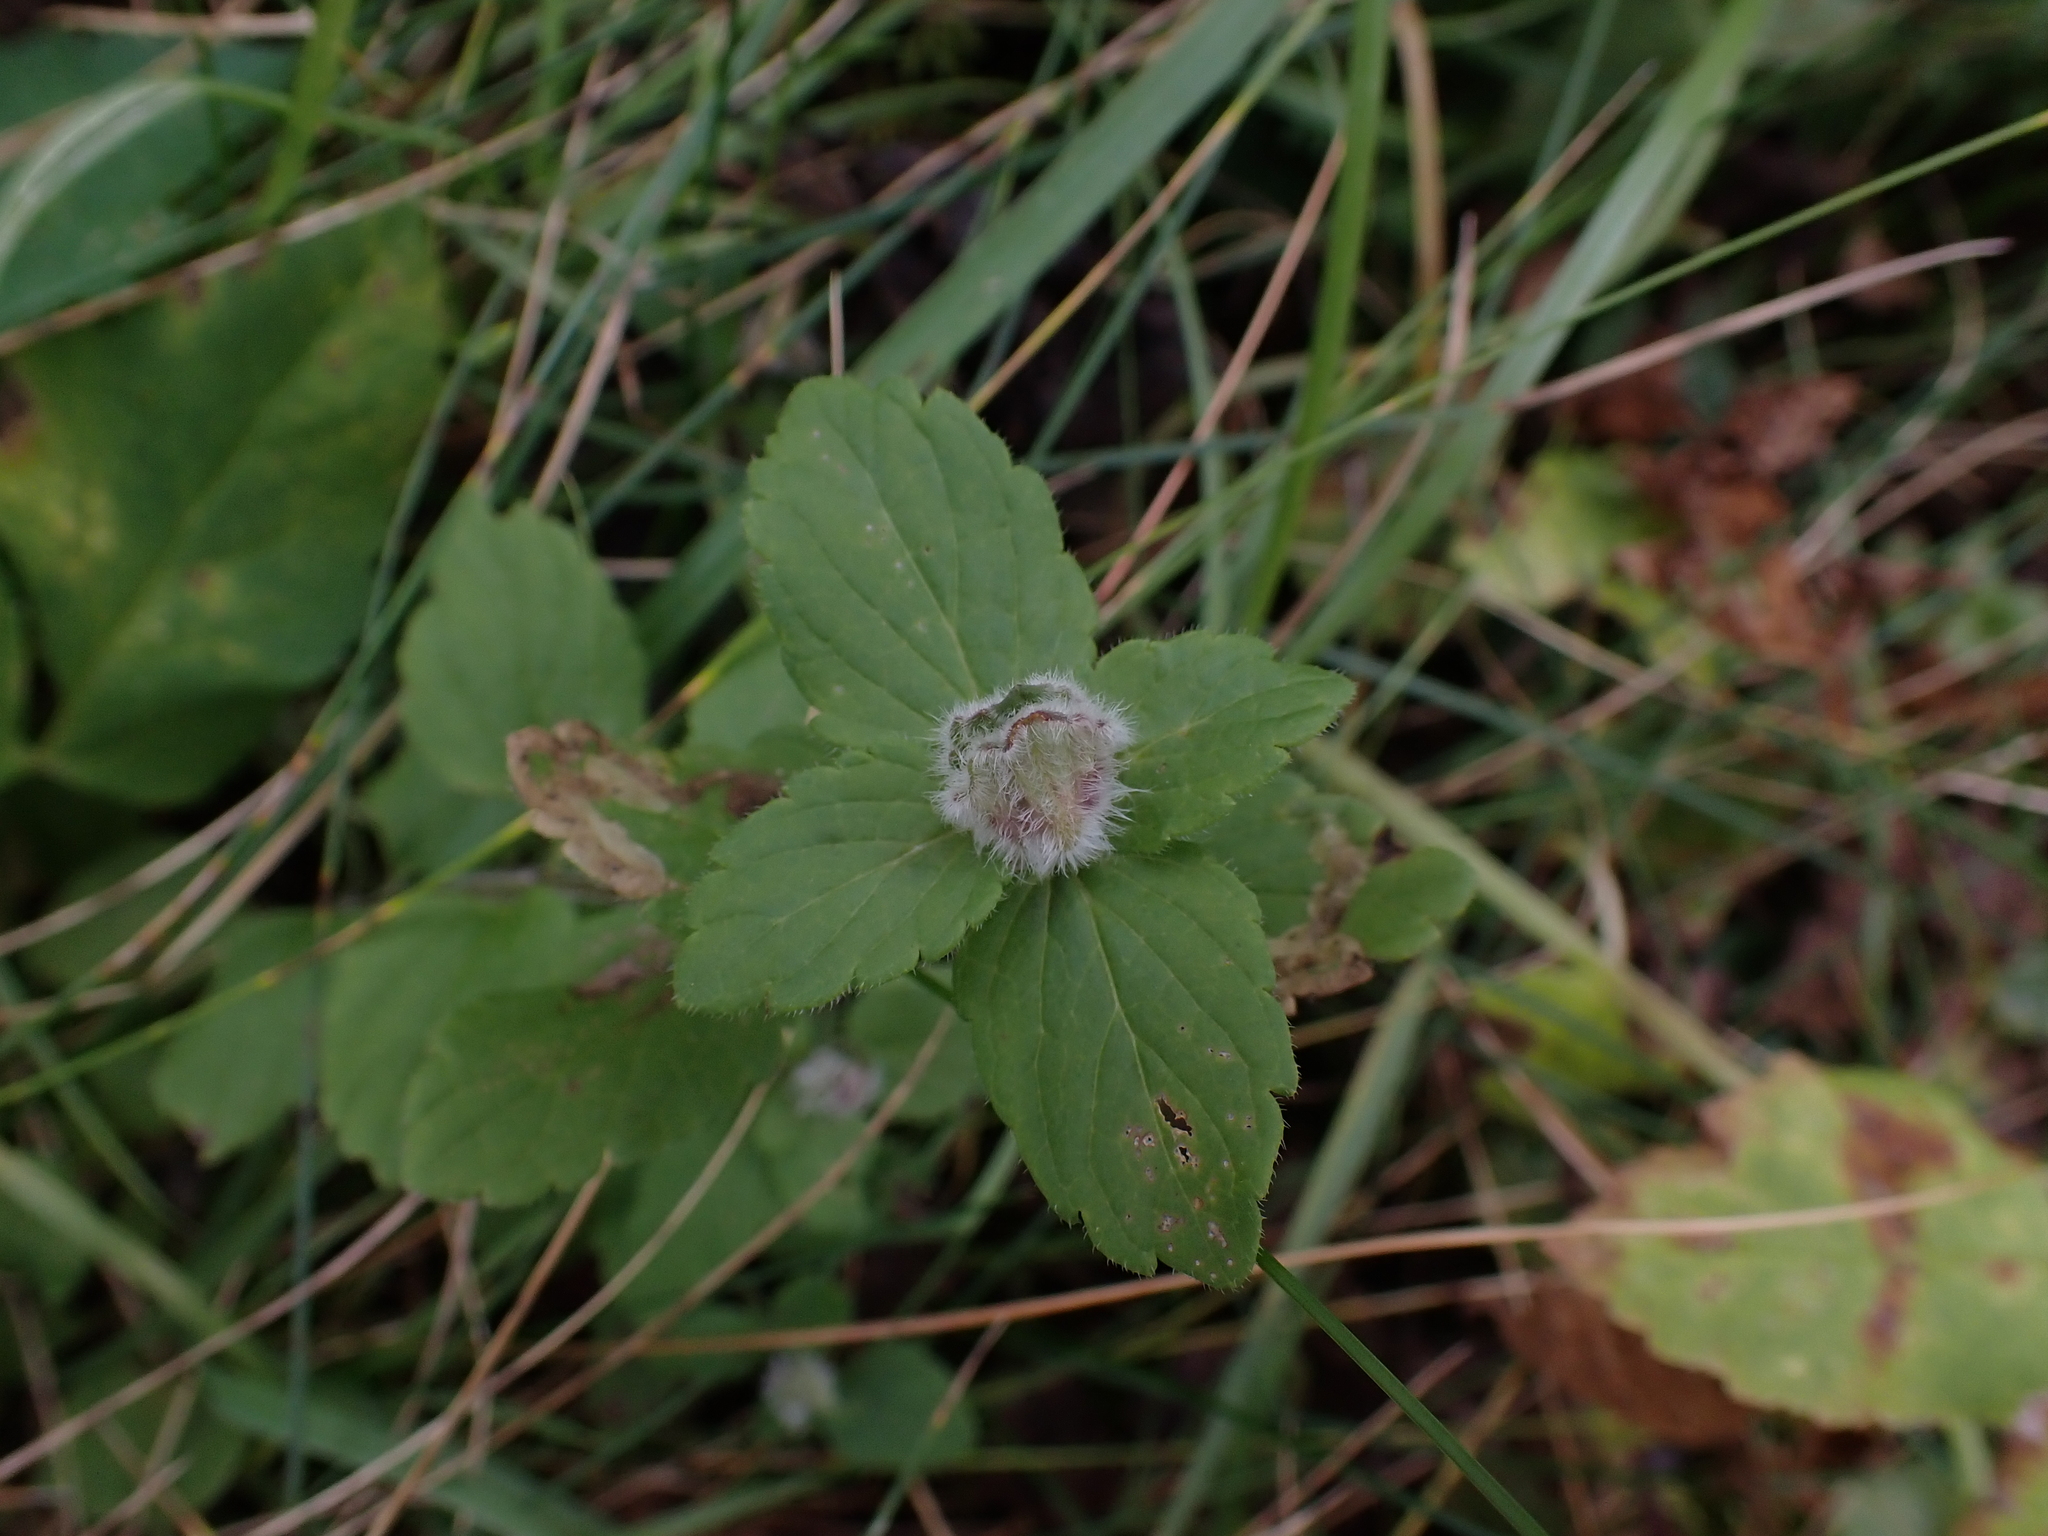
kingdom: Animalia
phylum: Arthropoda
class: Insecta
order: Diptera
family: Cecidomyiidae
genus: Jaapiella
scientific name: Jaapiella veronicae
